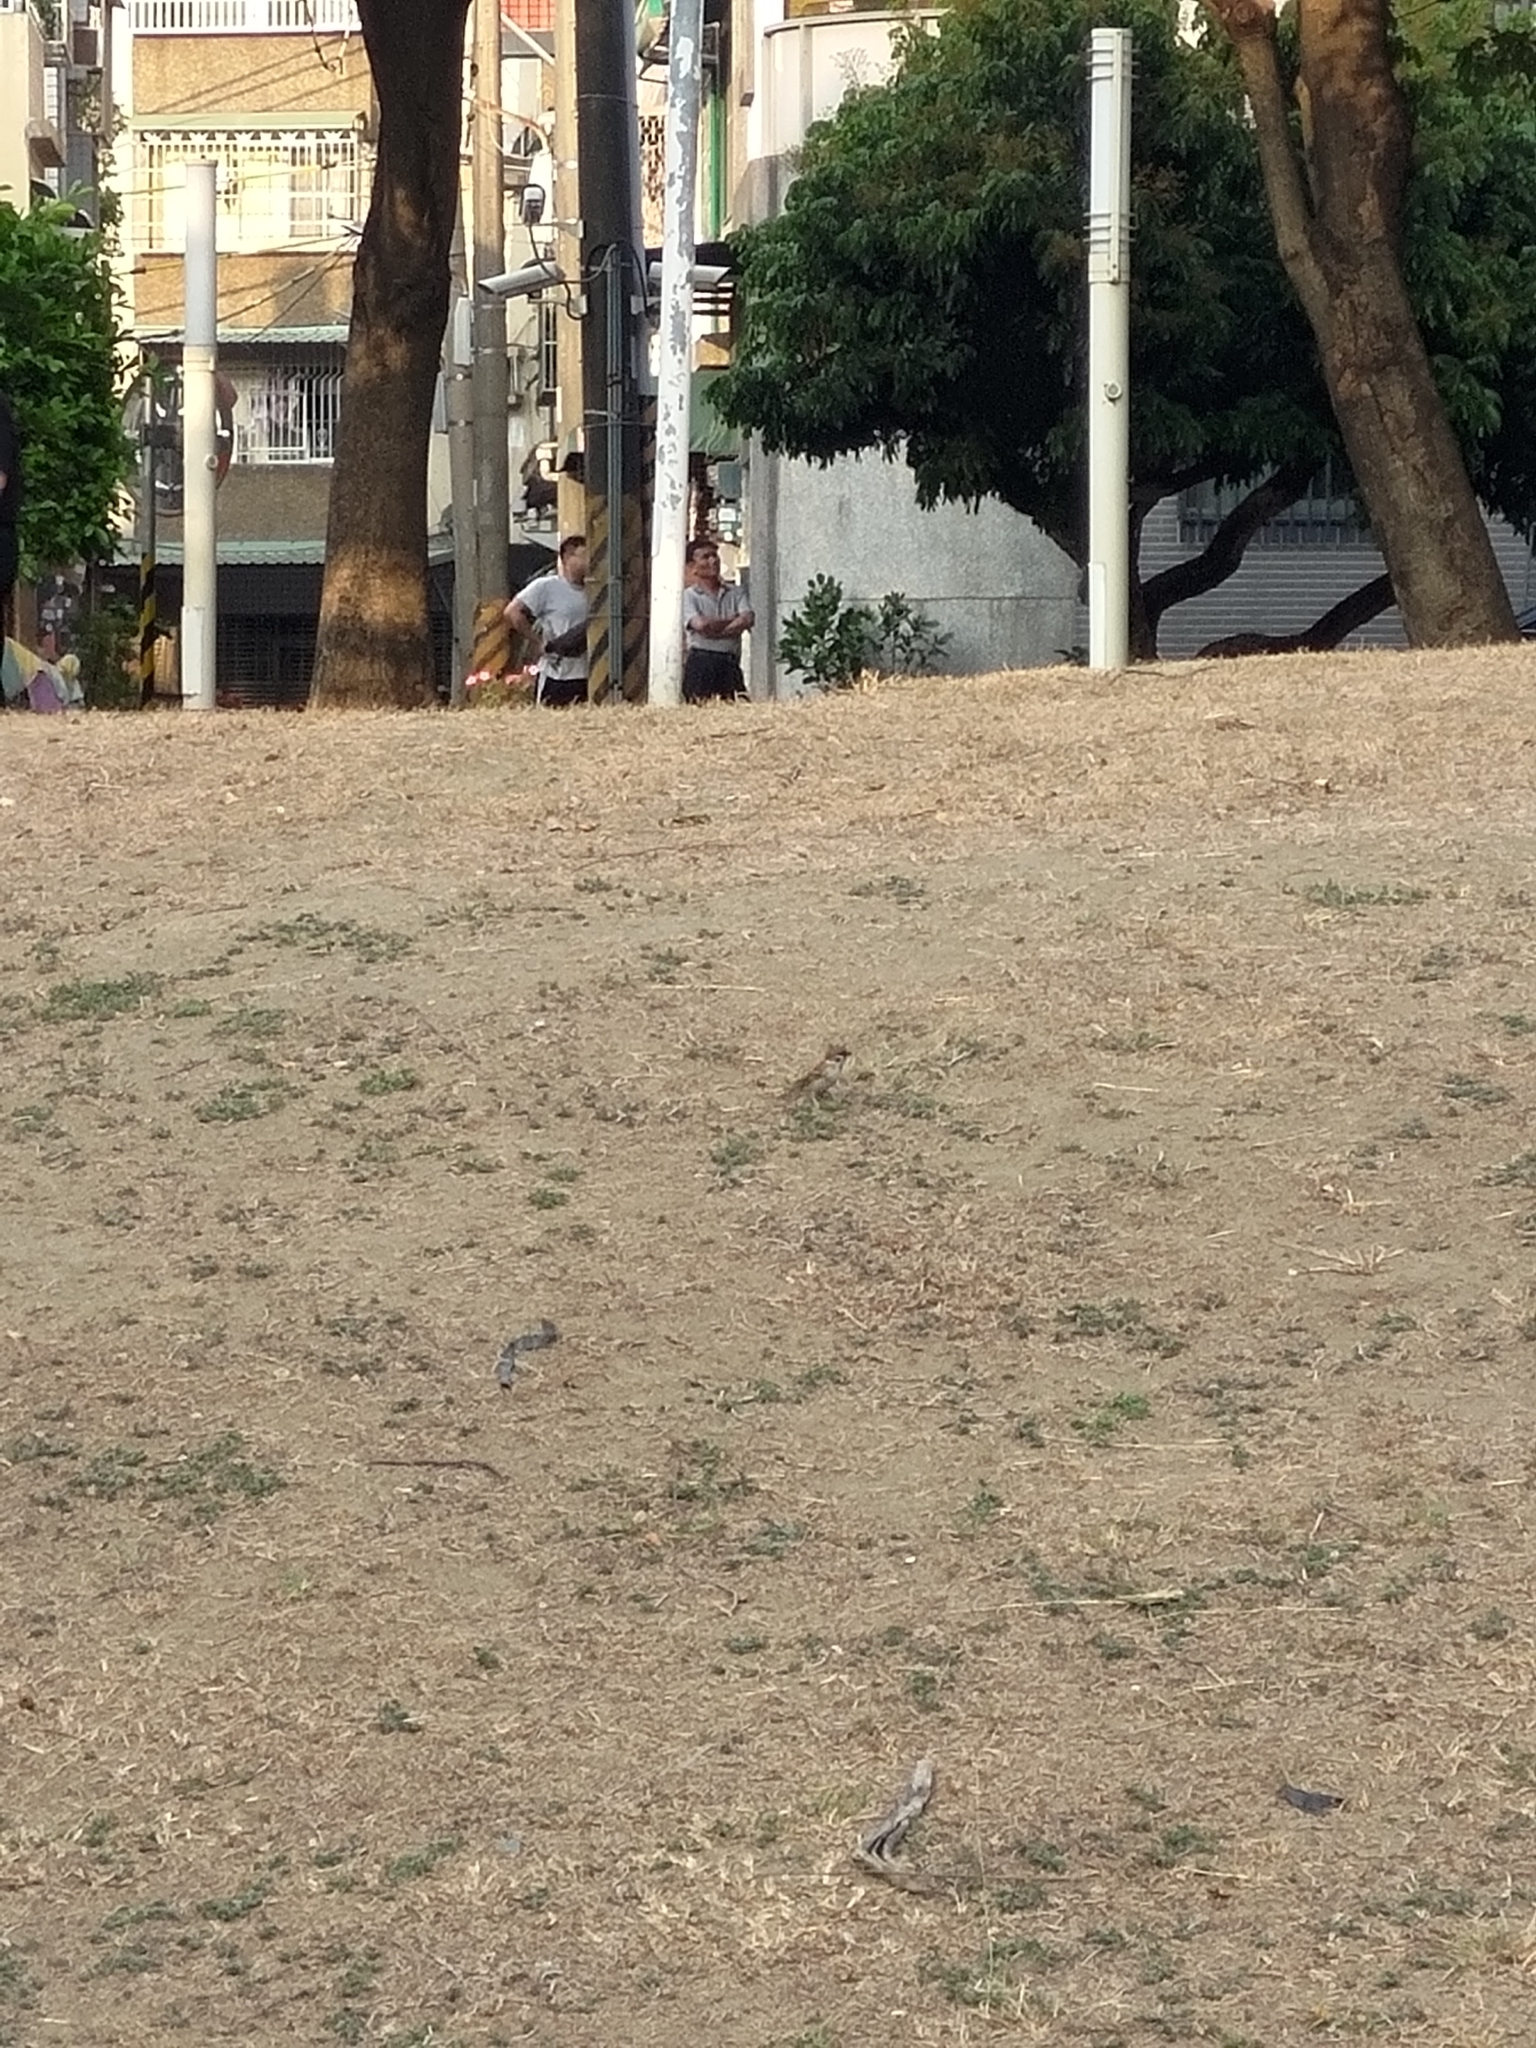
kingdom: Animalia
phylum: Chordata
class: Aves
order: Passeriformes
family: Passeridae
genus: Passer
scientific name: Passer montanus
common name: Eurasian tree sparrow
